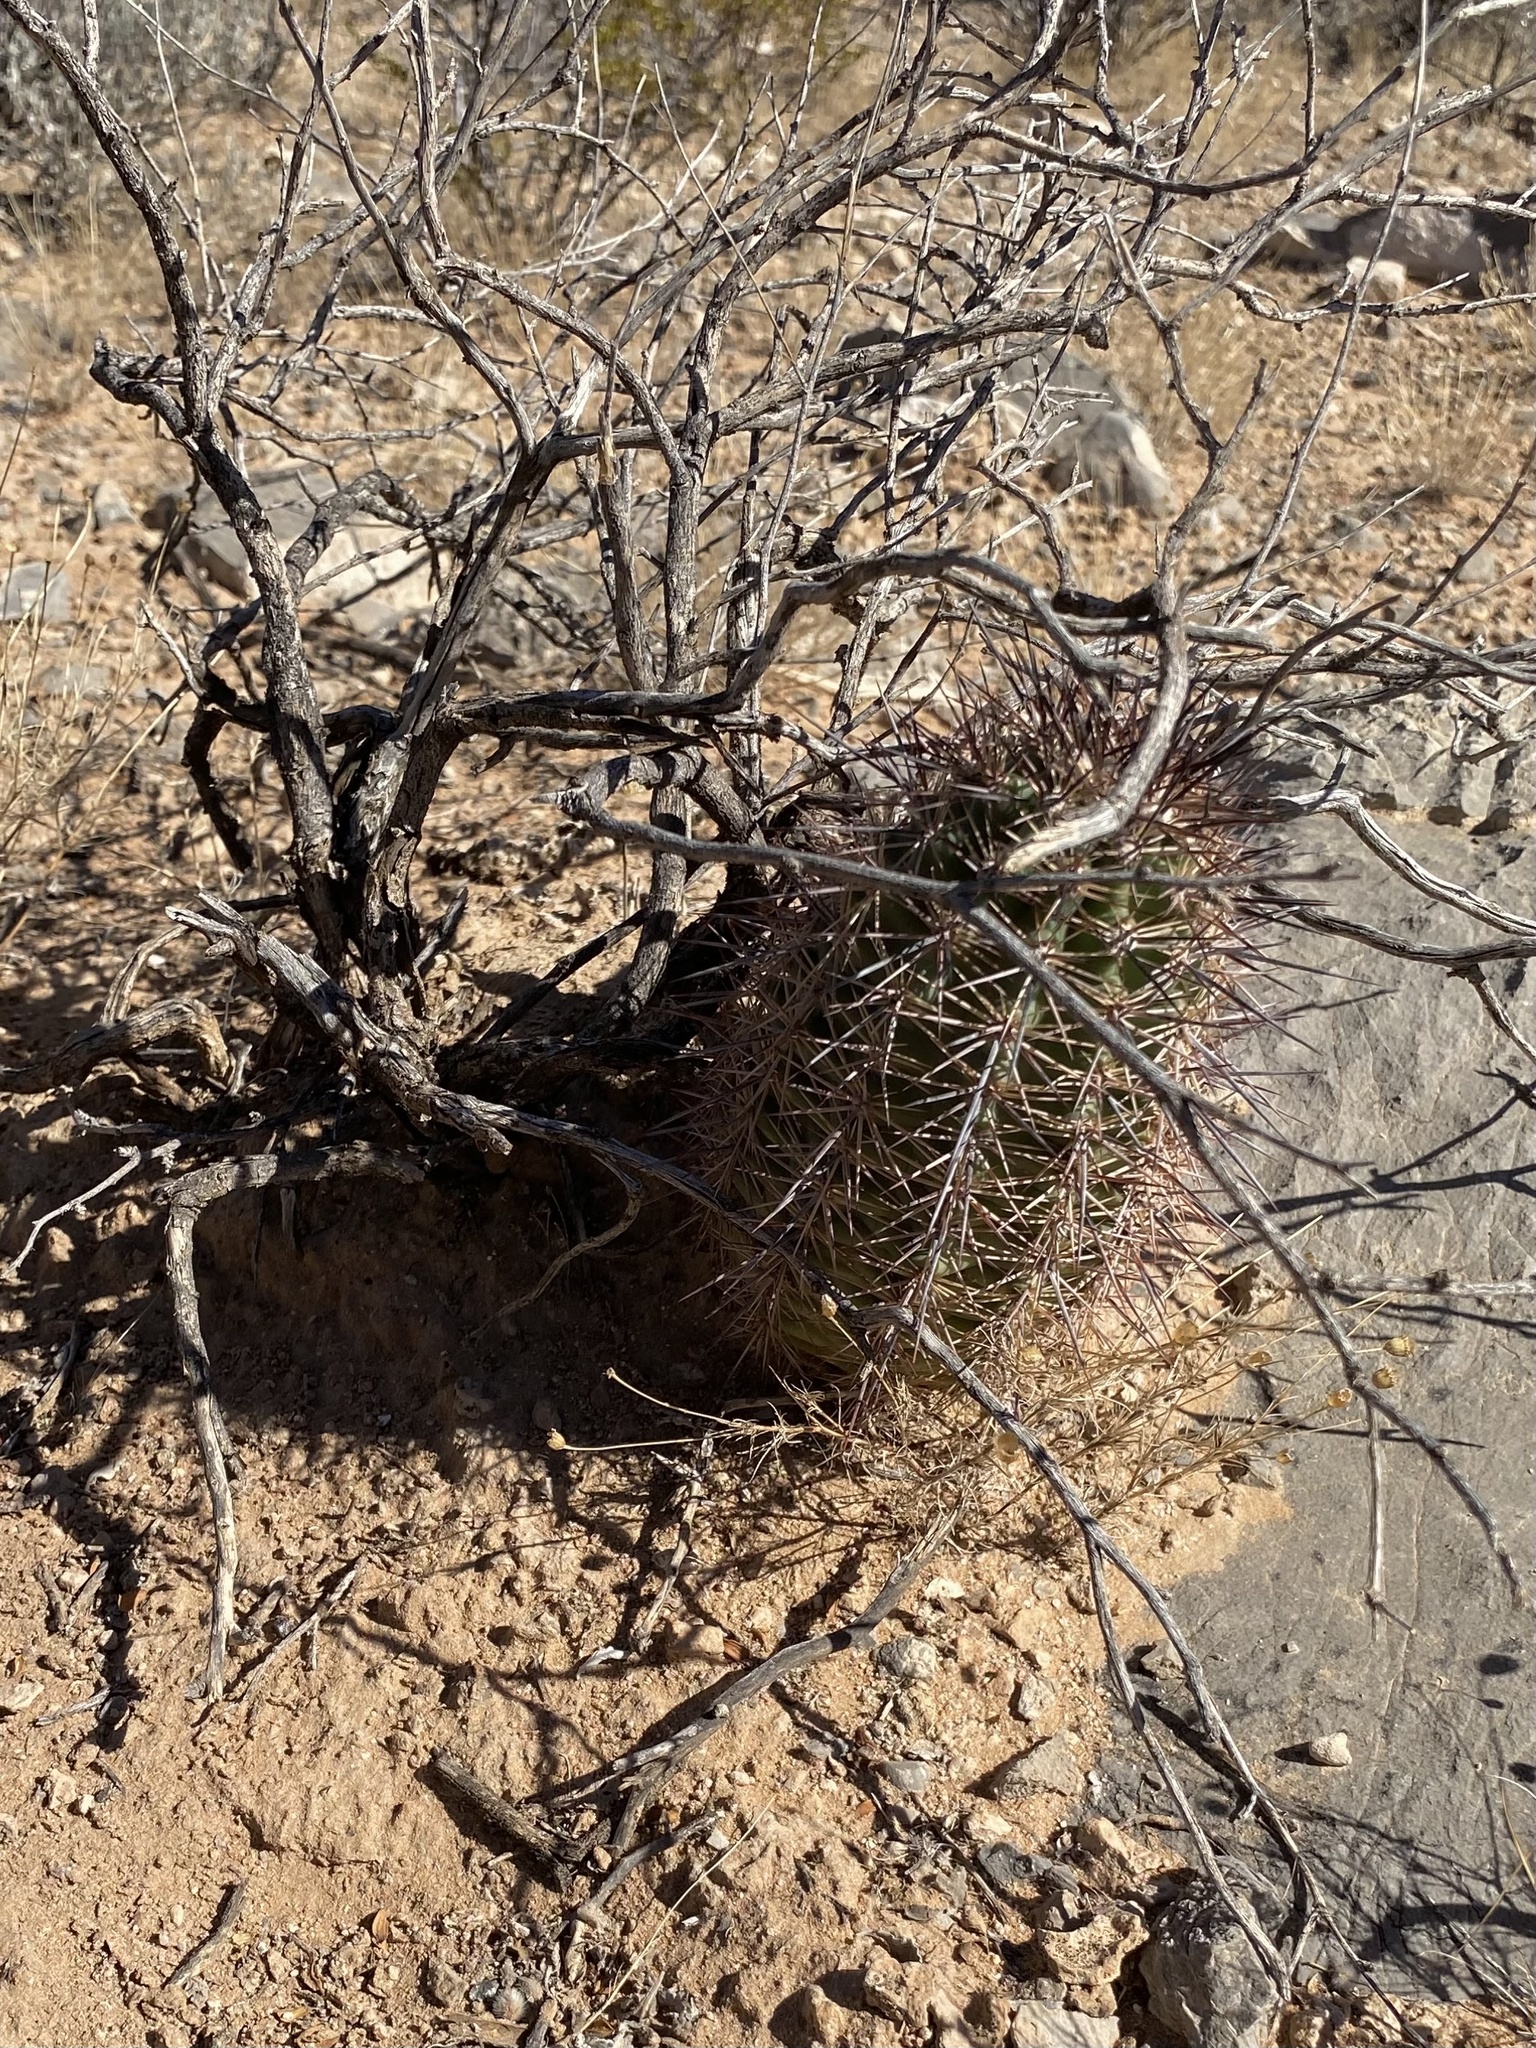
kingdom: Plantae
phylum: Tracheophyta
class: Magnoliopsida
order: Caryophyllales
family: Cactaceae
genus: Echinocereus
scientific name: Echinocereus coccineus
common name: Scarlet hedgehog cactus
